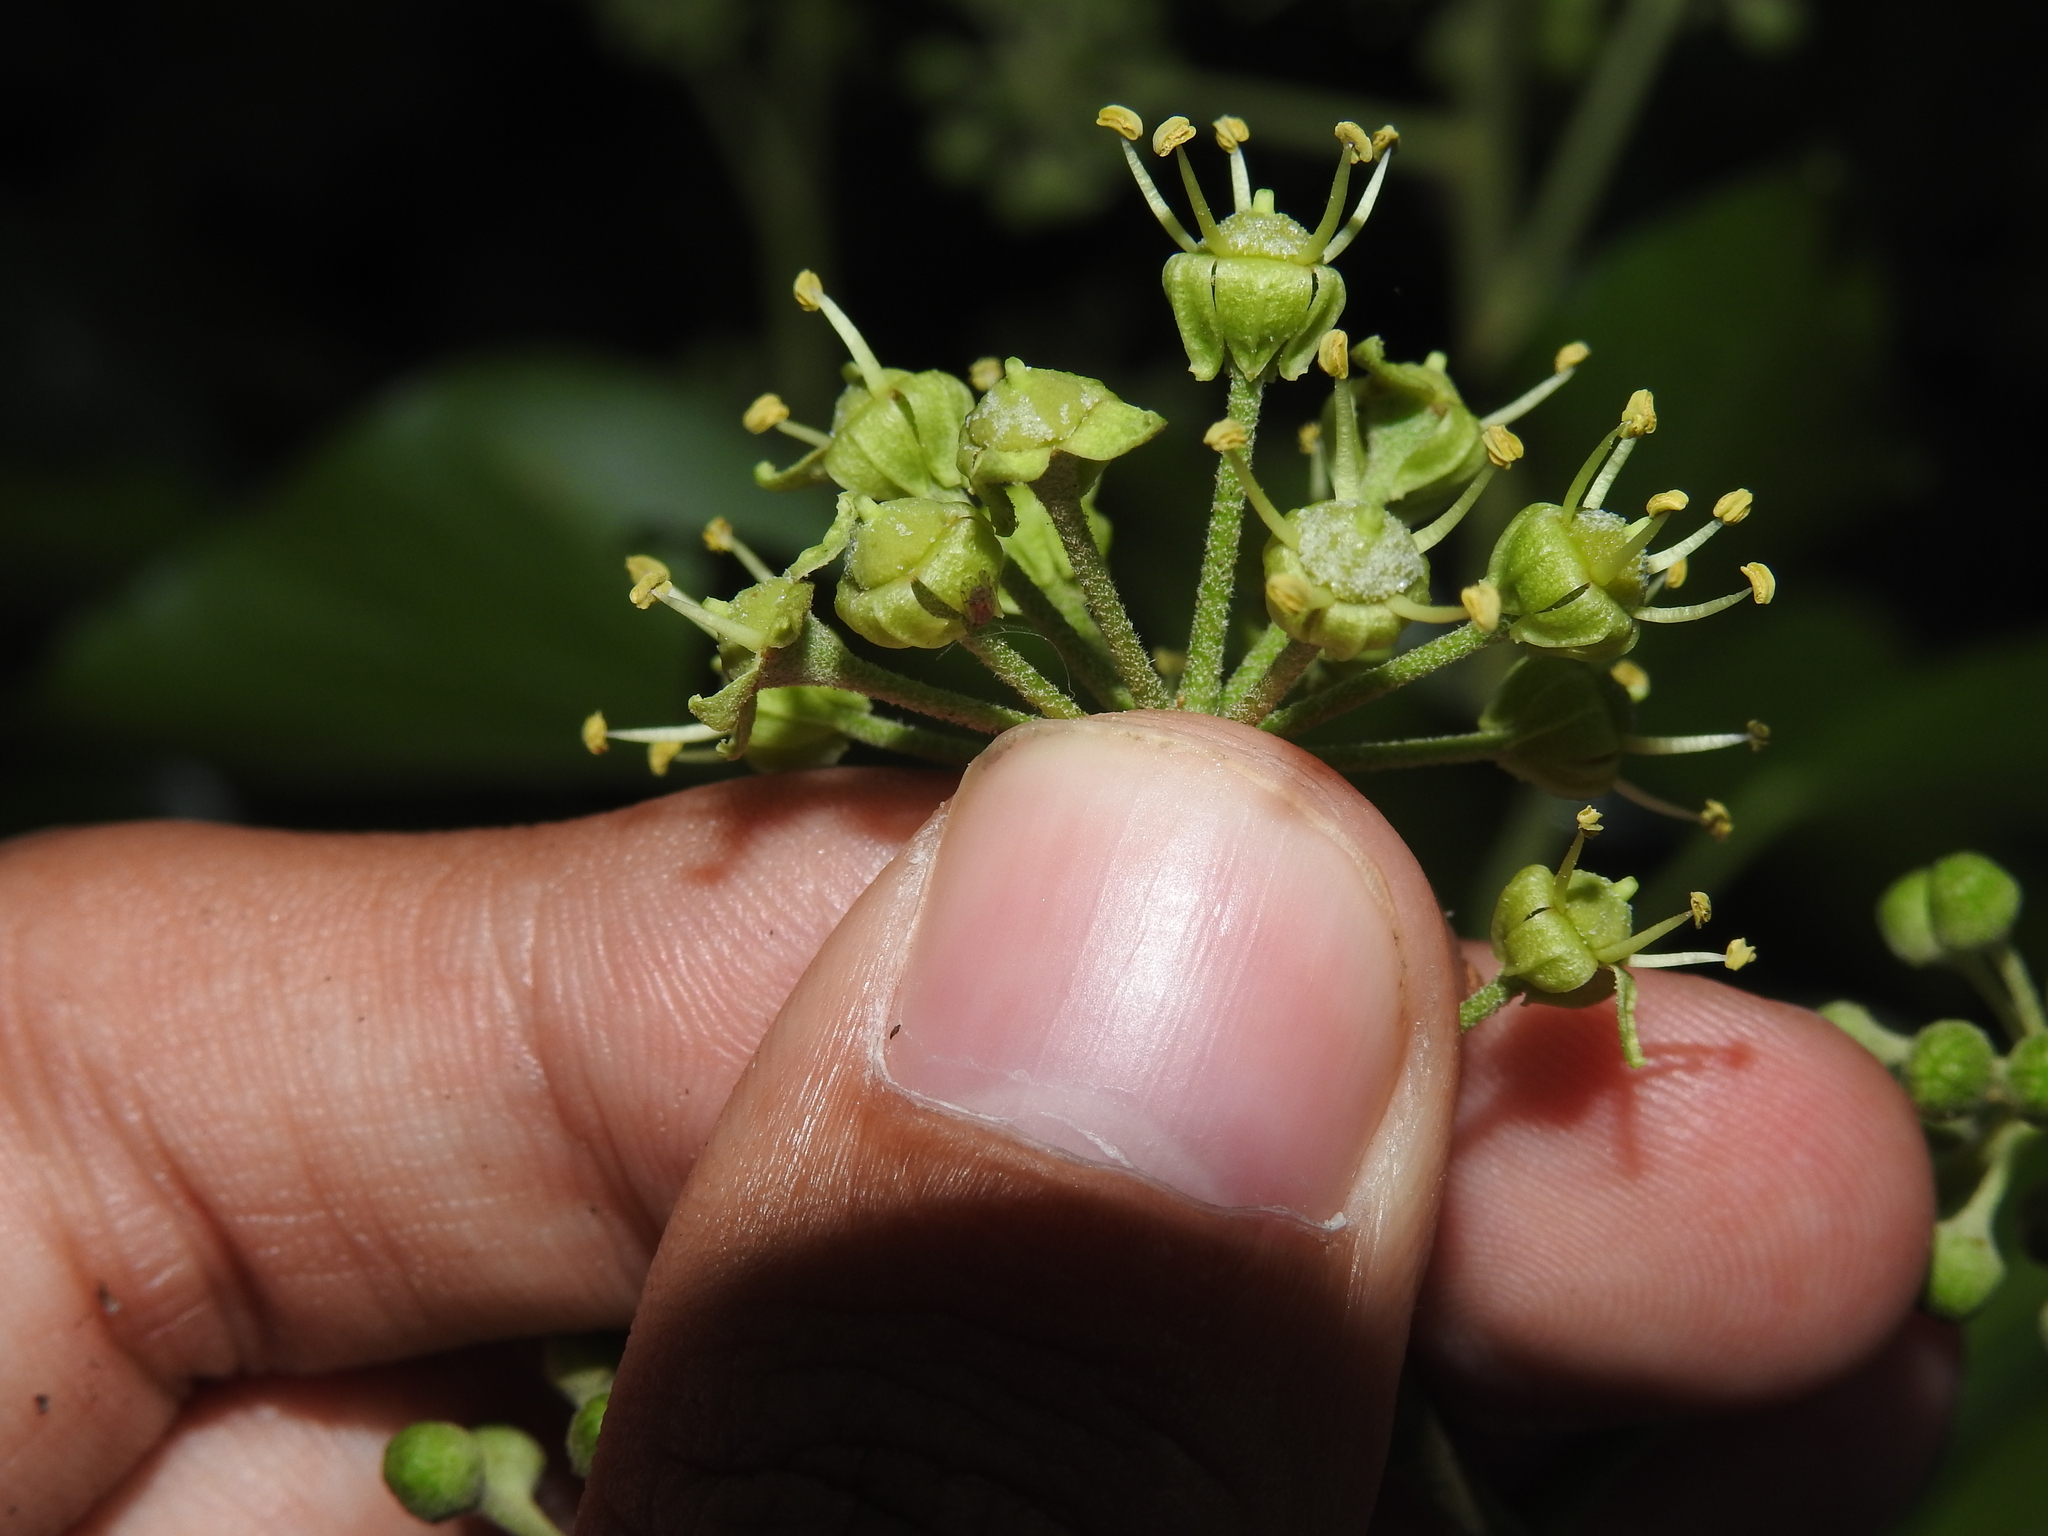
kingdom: Plantae
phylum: Tracheophyta
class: Magnoliopsida
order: Apiales
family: Araliaceae
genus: Hedera
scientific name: Hedera helix
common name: Ivy
